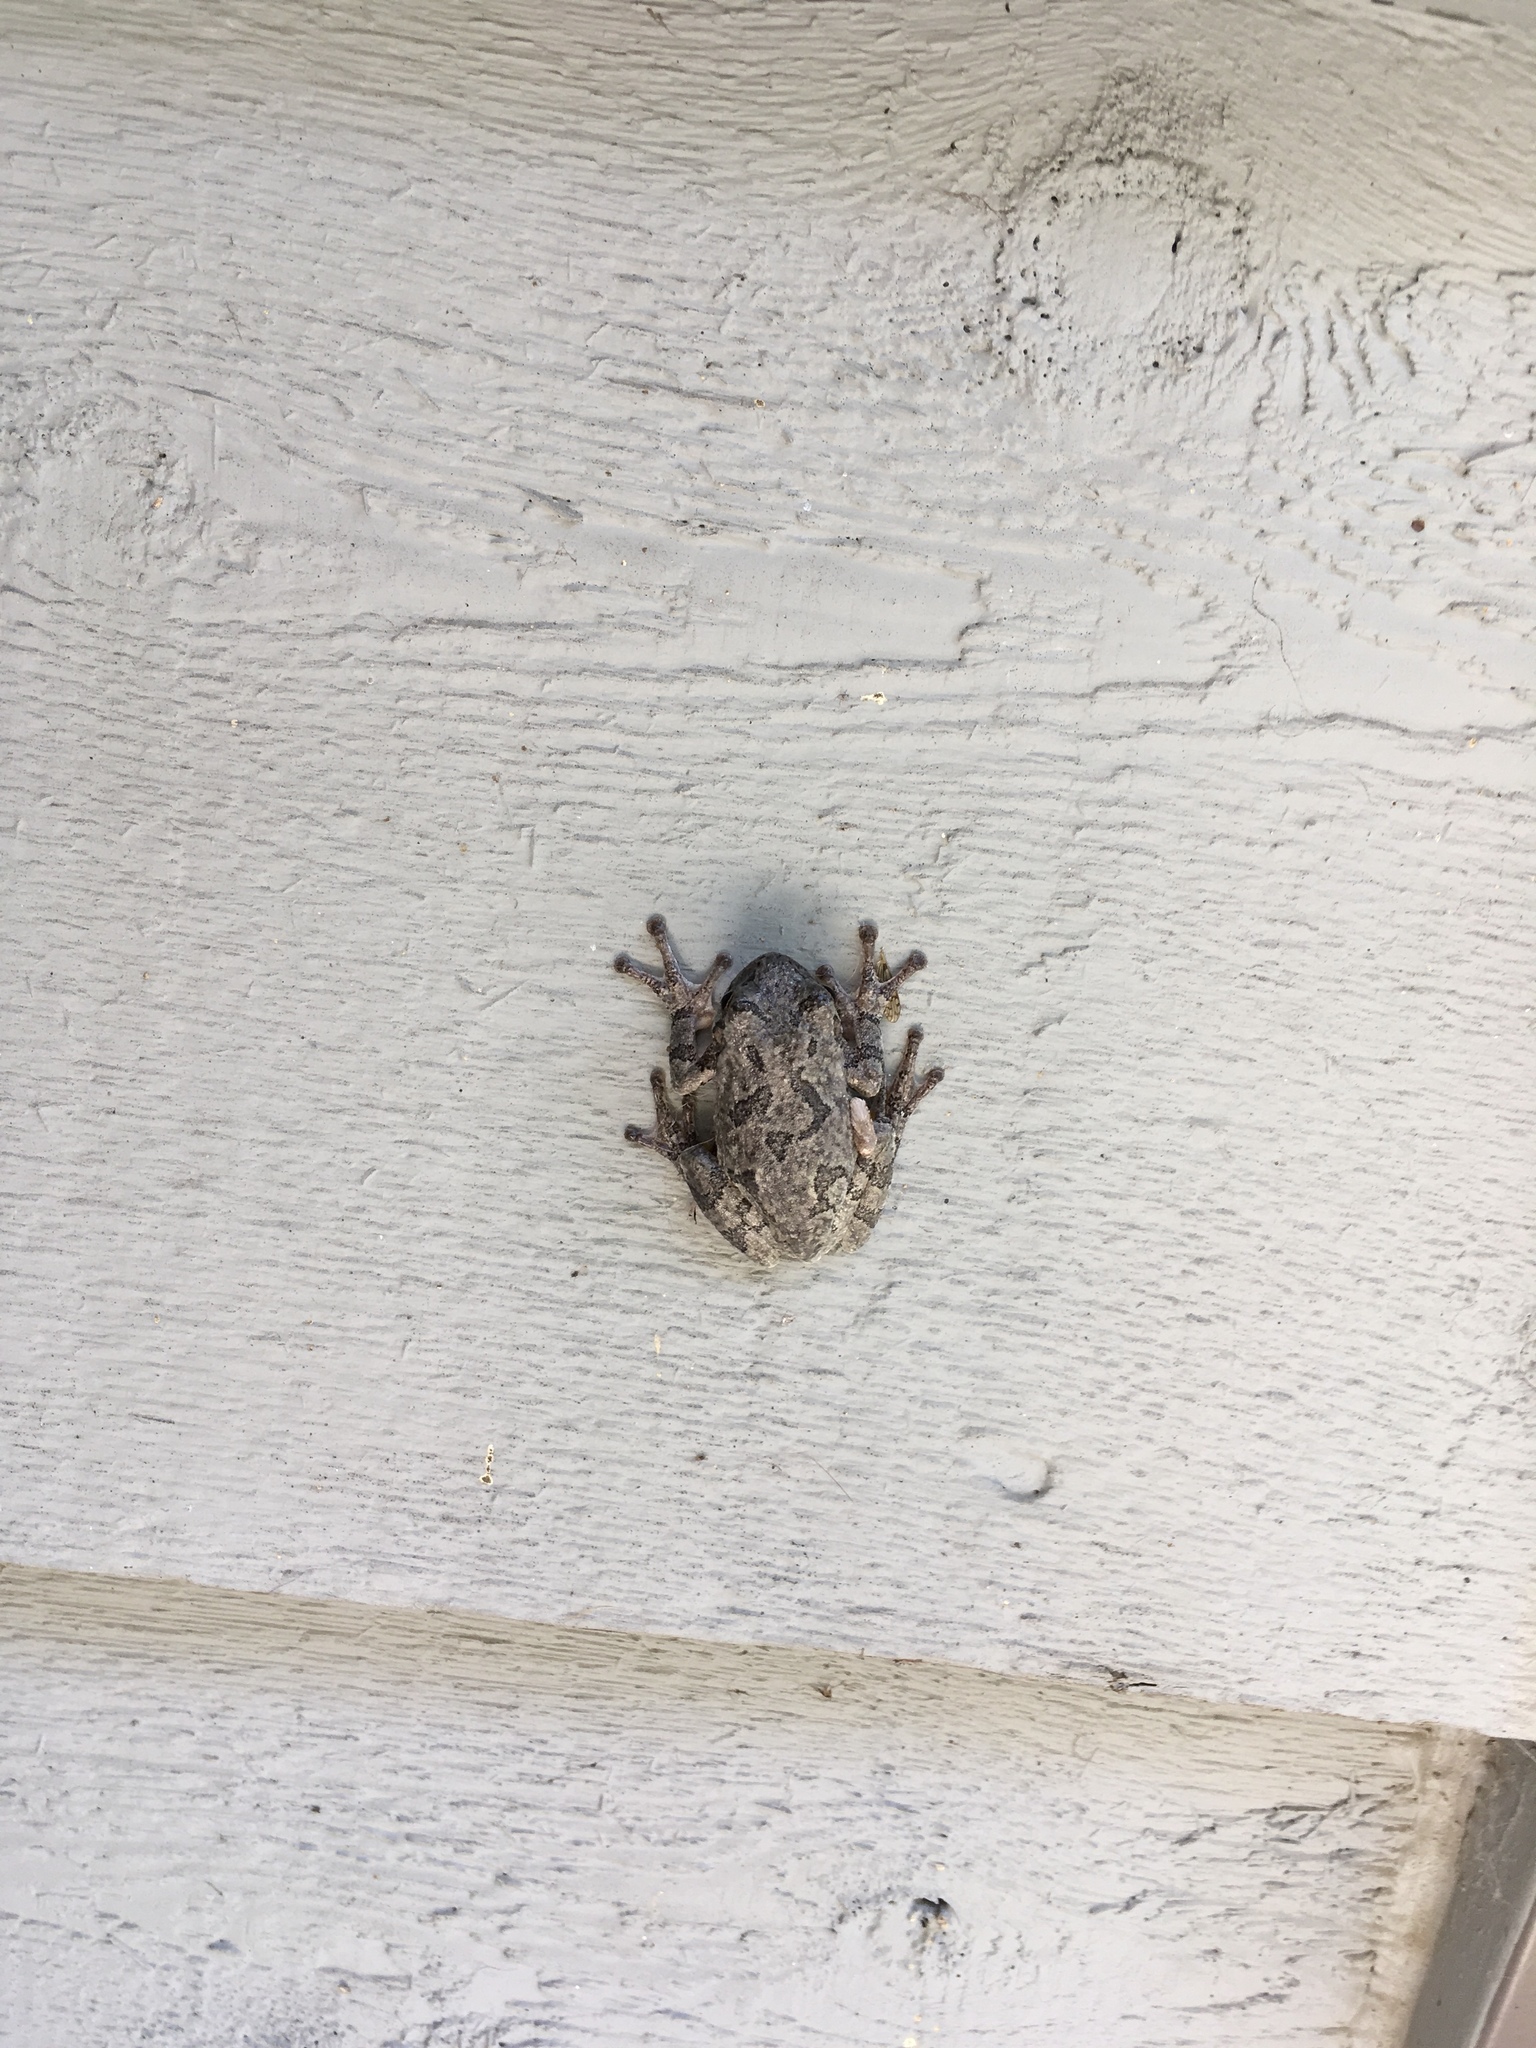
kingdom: Animalia
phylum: Chordata
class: Amphibia
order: Anura
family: Hylidae
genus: Hyla
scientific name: Hyla
